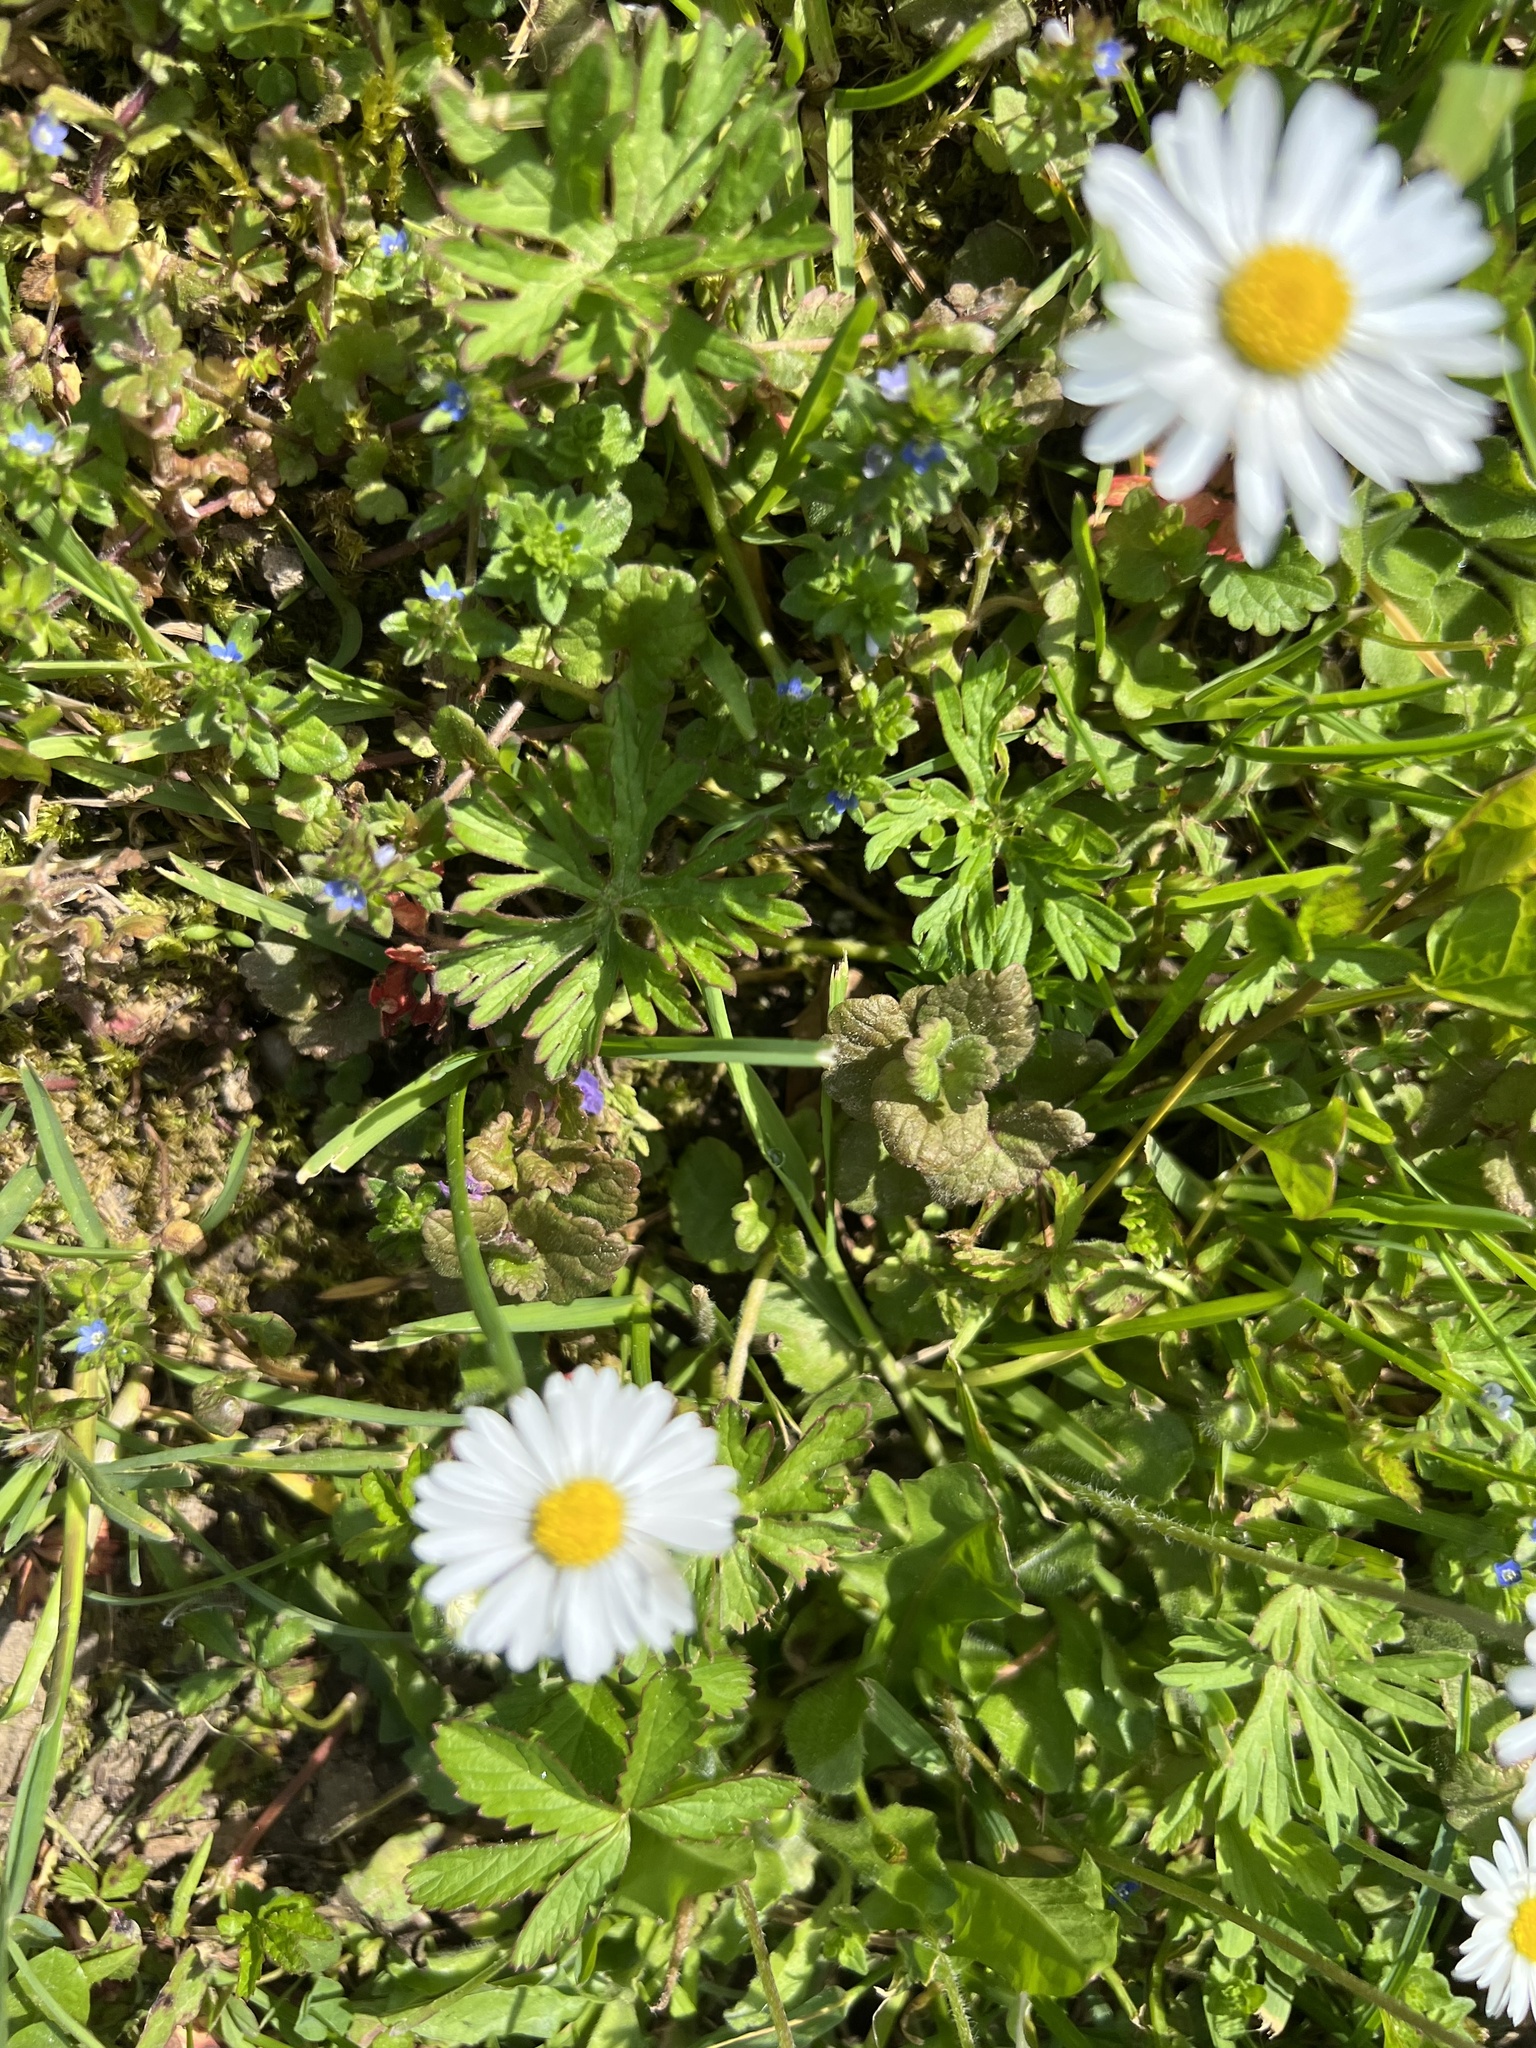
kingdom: Plantae
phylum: Tracheophyta
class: Magnoliopsida
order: Asterales
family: Asteraceae
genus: Bellis
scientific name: Bellis perennis
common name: Lawndaisy
